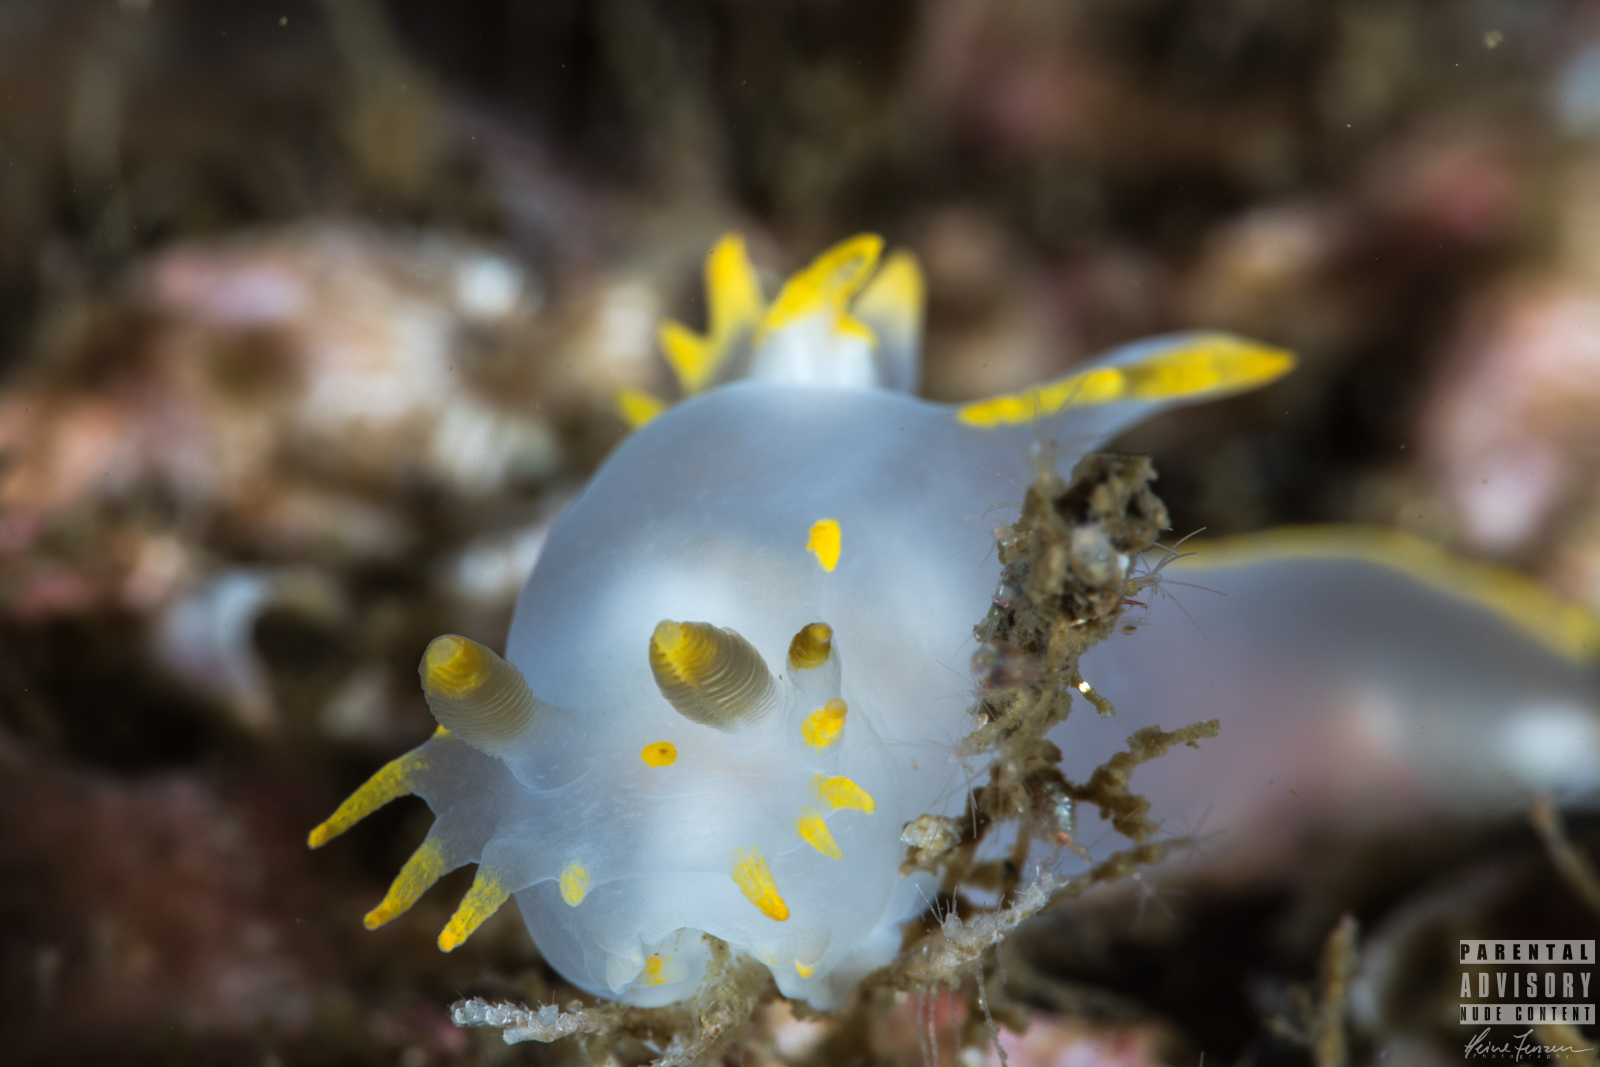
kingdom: Animalia
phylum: Mollusca
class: Gastropoda
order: Nudibranchia
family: Polyceridae
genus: Polycera
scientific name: Polycera faeroensis
